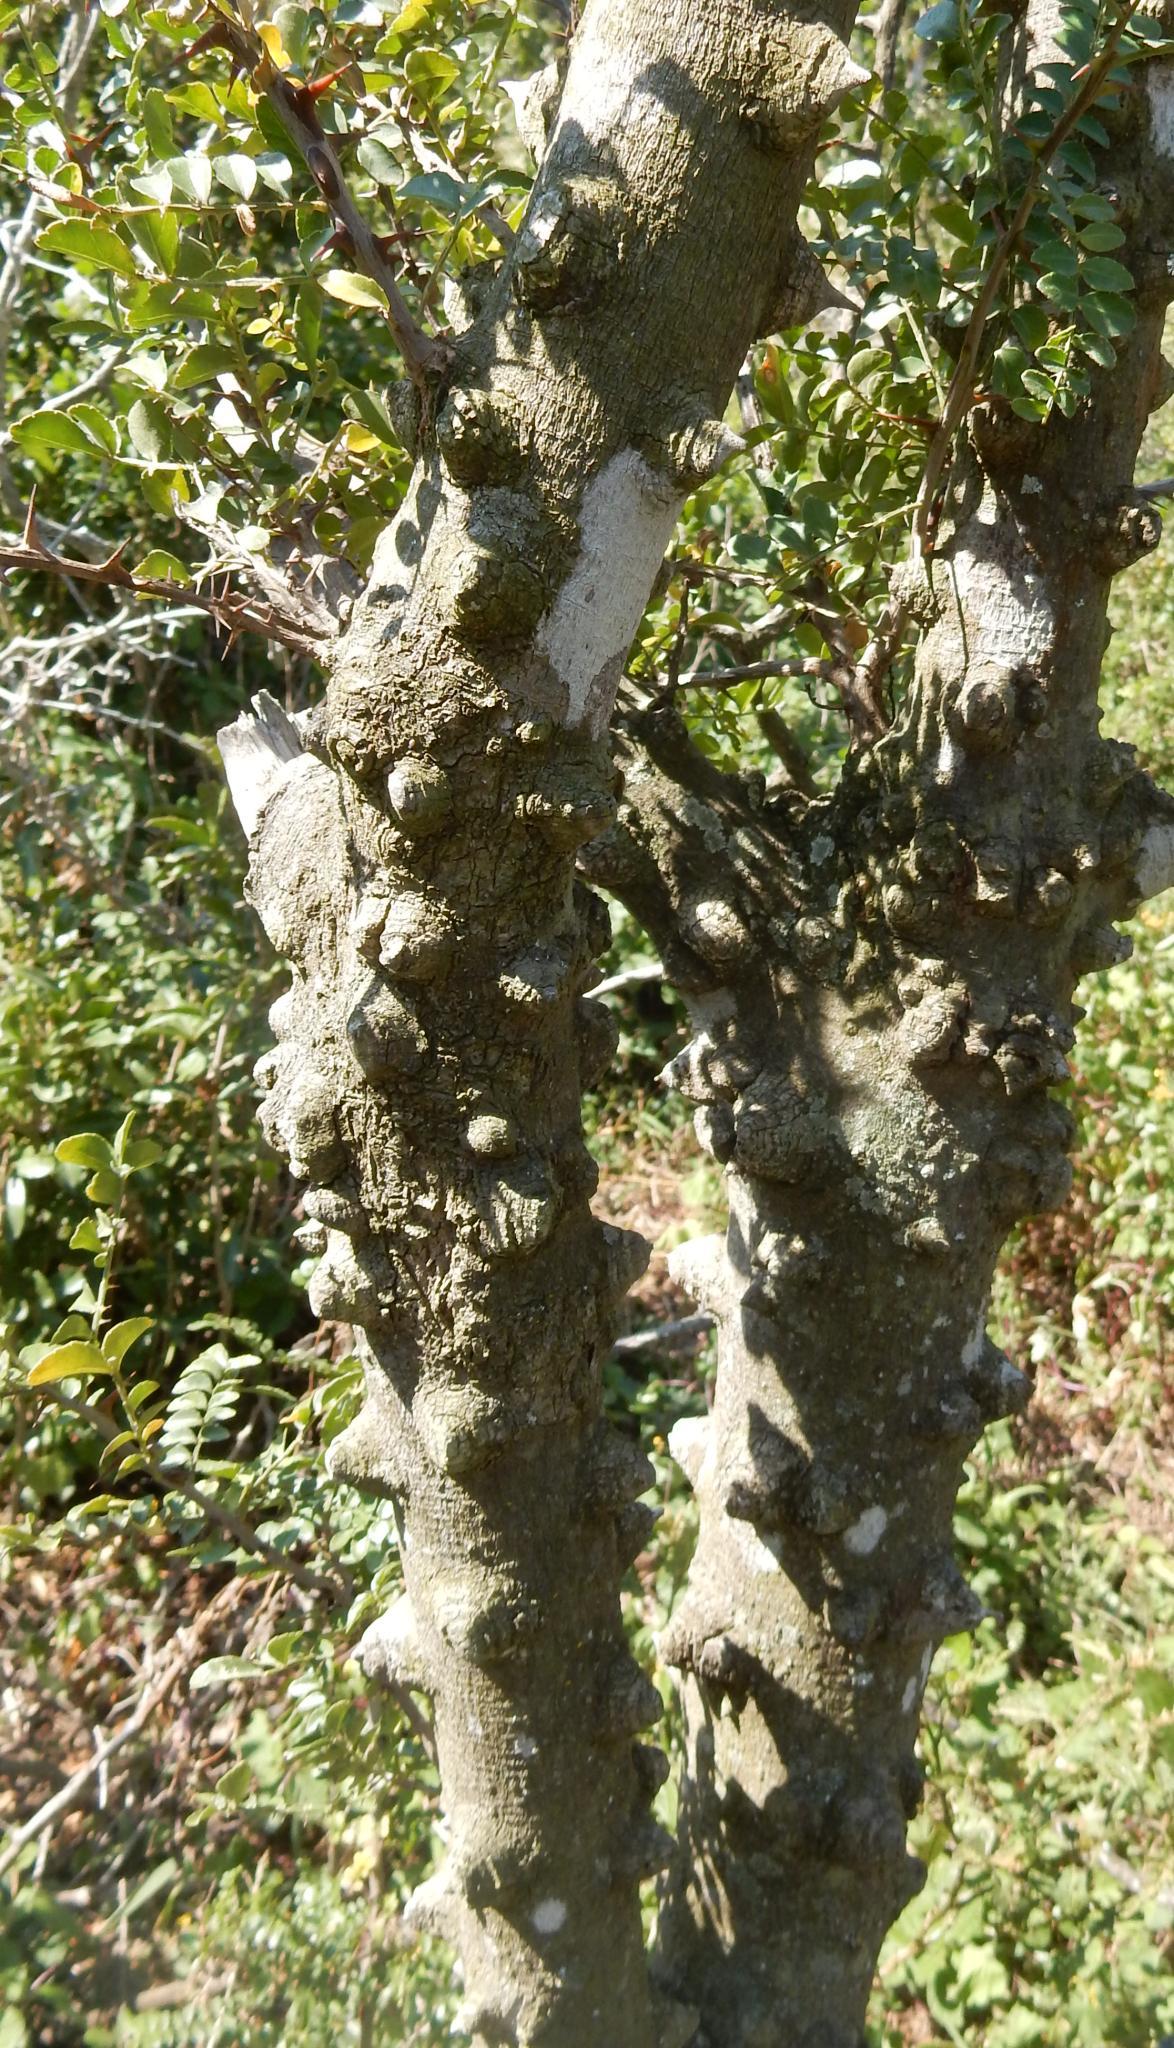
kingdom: Plantae
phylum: Tracheophyta
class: Magnoliopsida
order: Sapindales
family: Rutaceae
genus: Zanthoxylum
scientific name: Zanthoxylum capense
